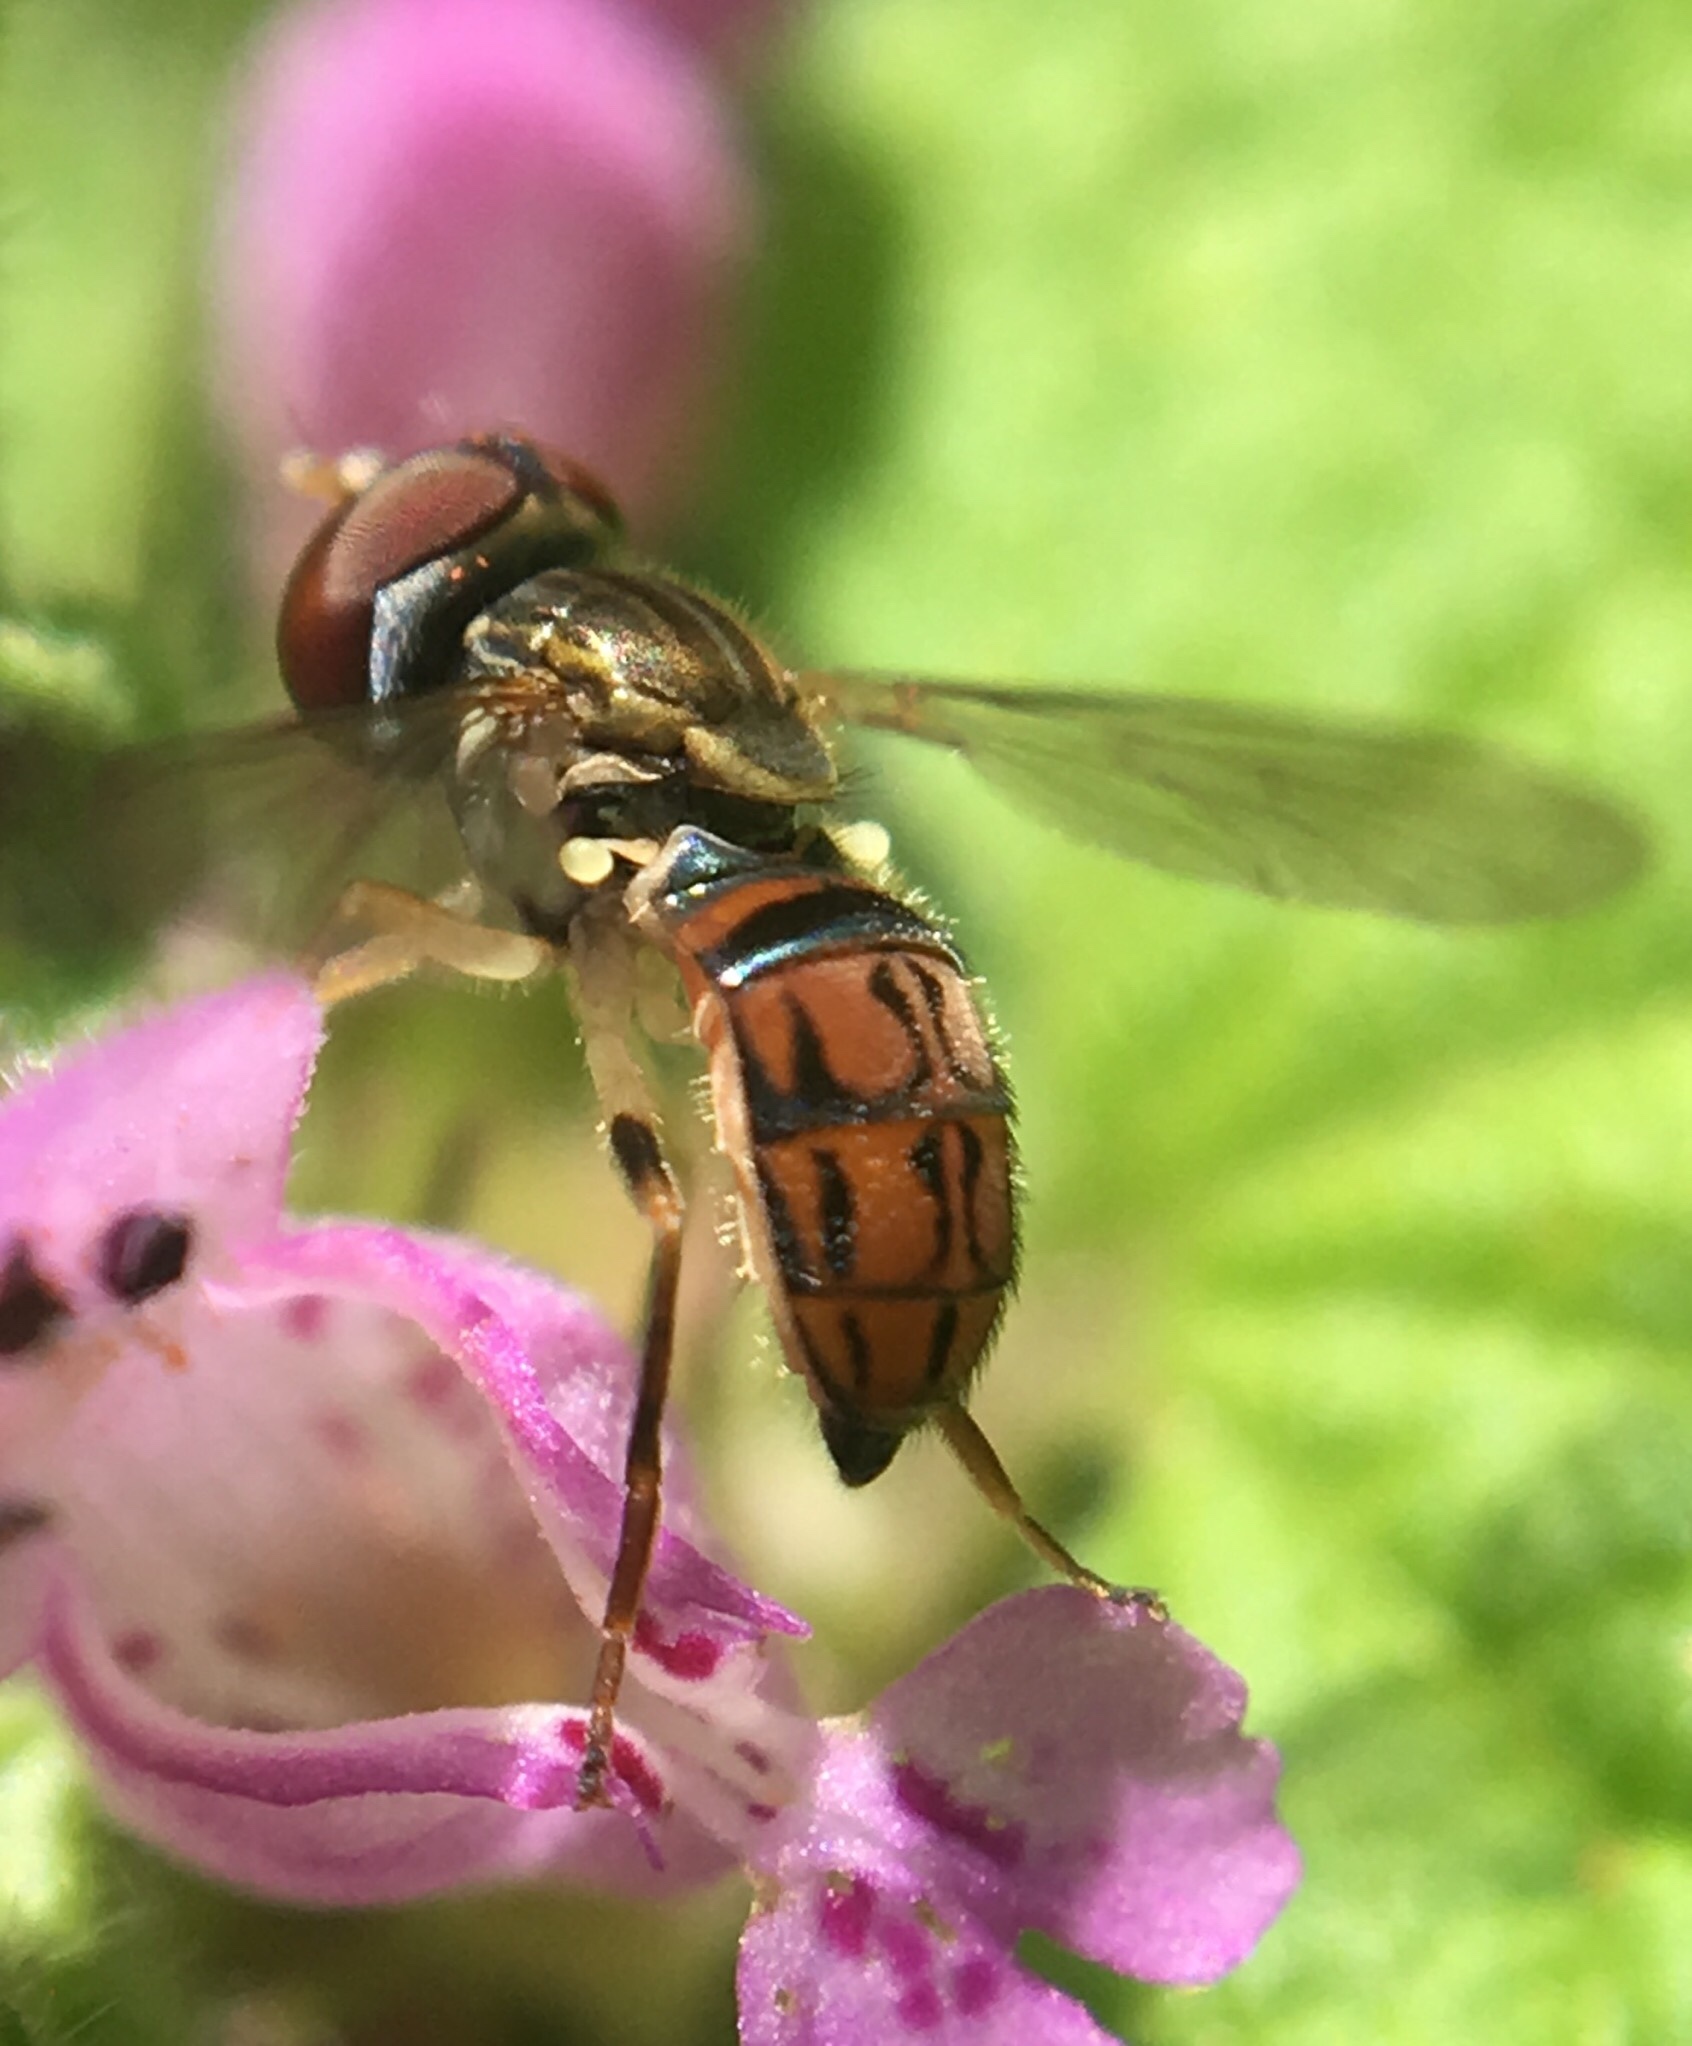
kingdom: Animalia
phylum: Arthropoda
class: Insecta
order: Diptera
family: Syrphidae
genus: Toxomerus
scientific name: Toxomerus boscii
